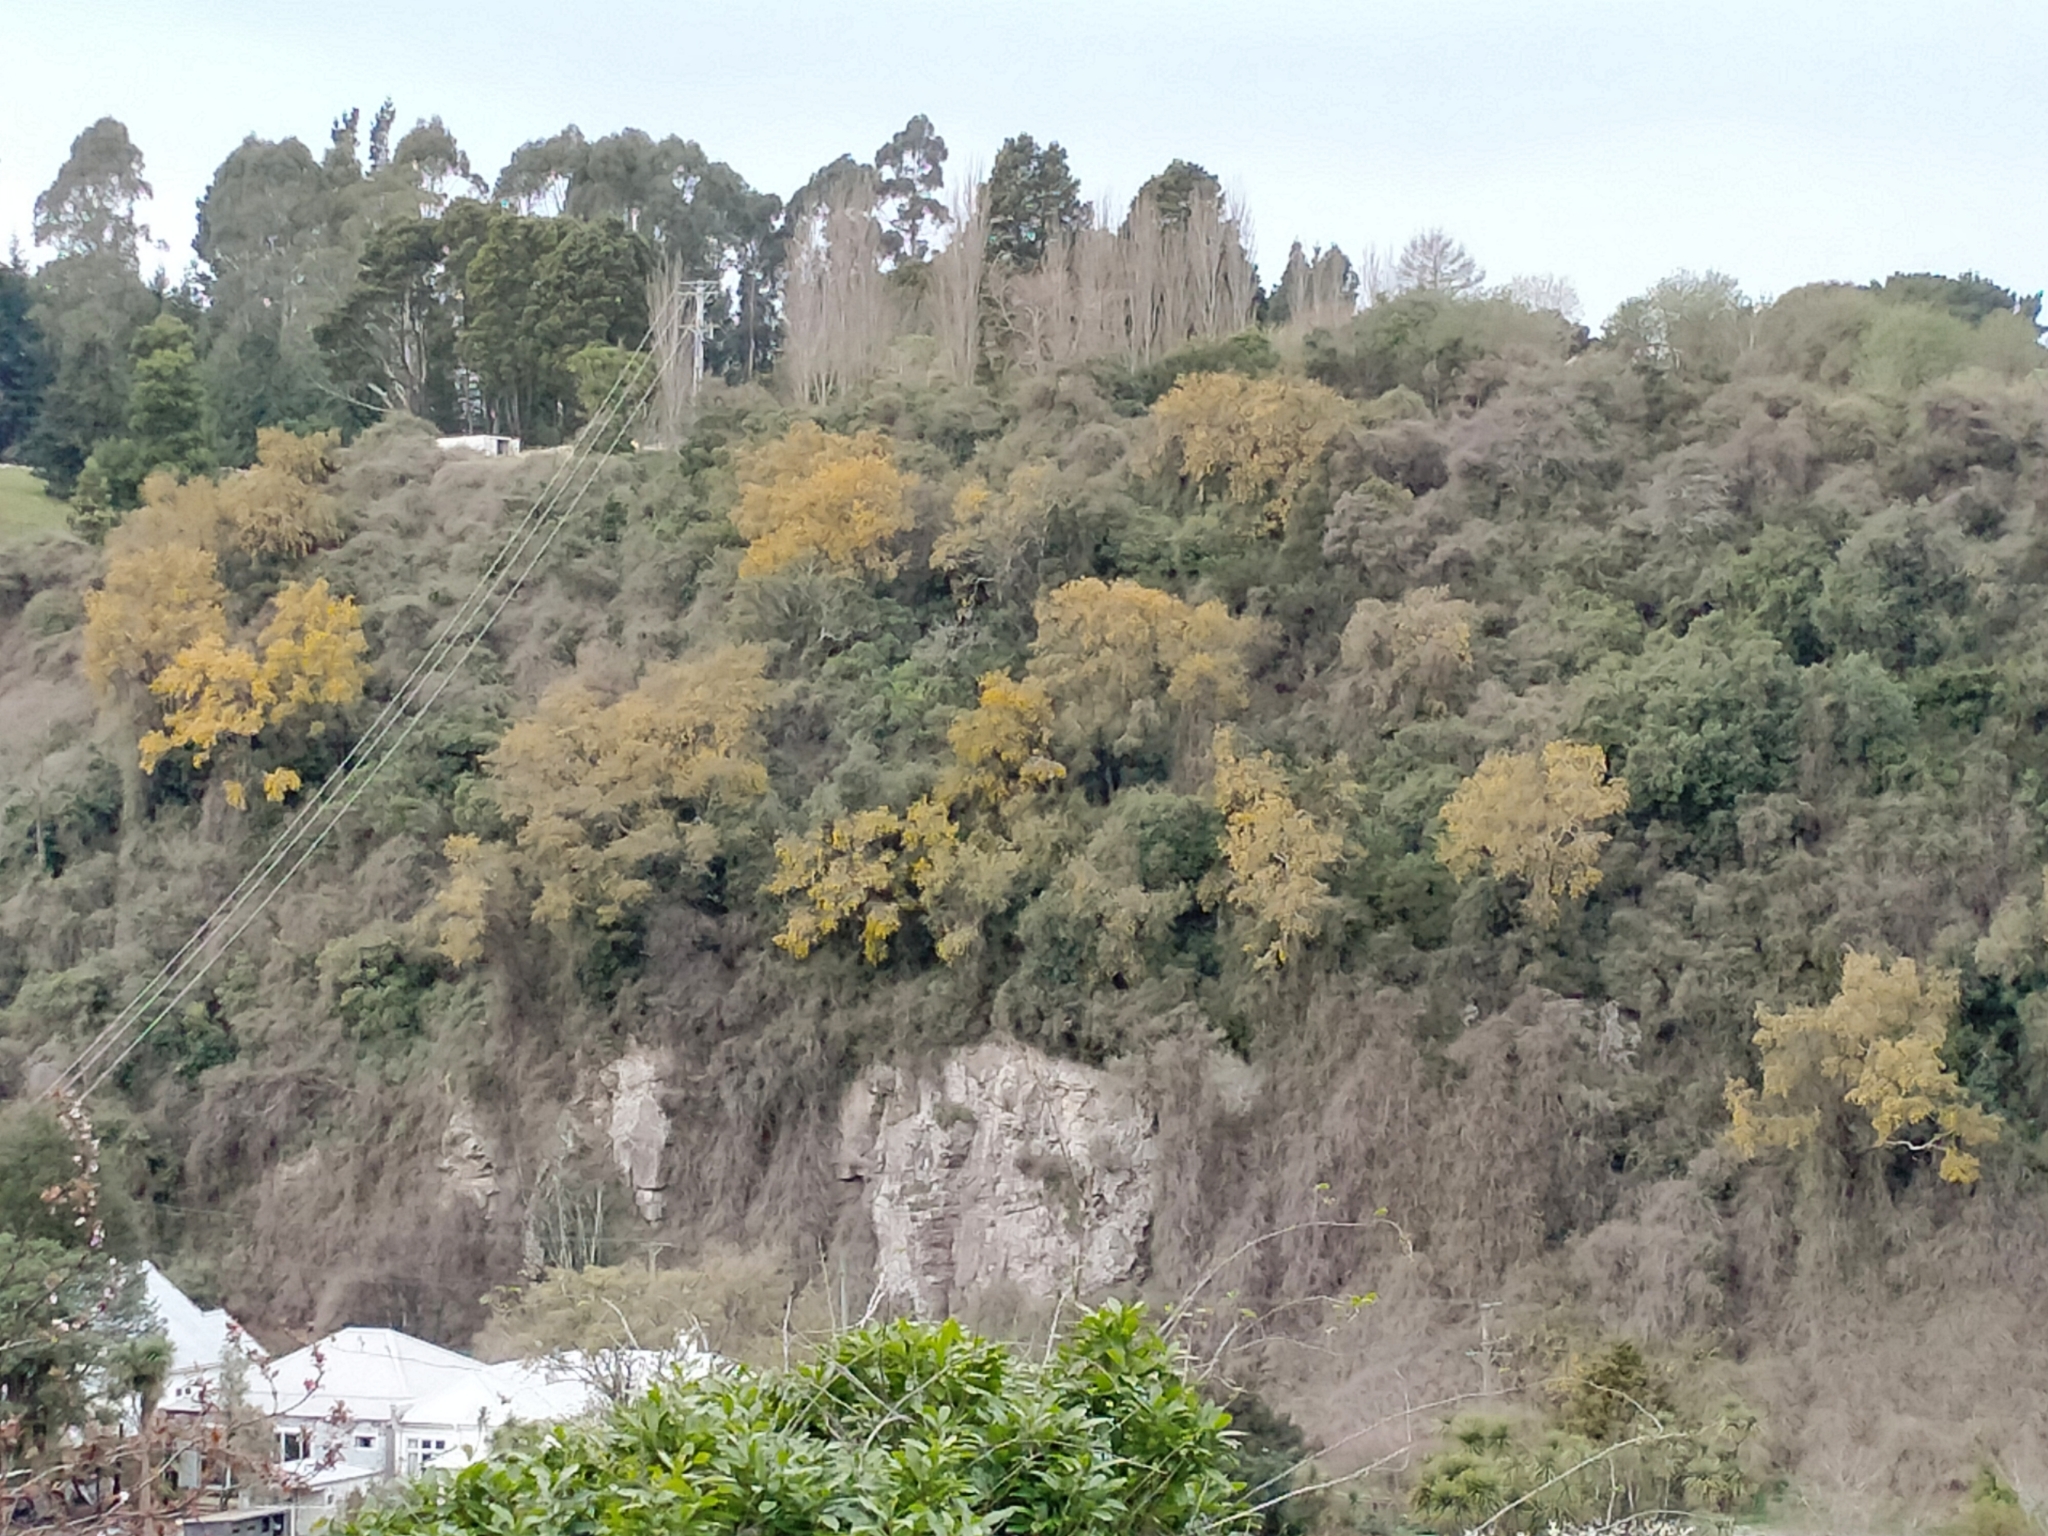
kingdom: Plantae
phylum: Tracheophyta
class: Magnoliopsida
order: Fabales
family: Fabaceae
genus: Sophora
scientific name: Sophora microphylla
